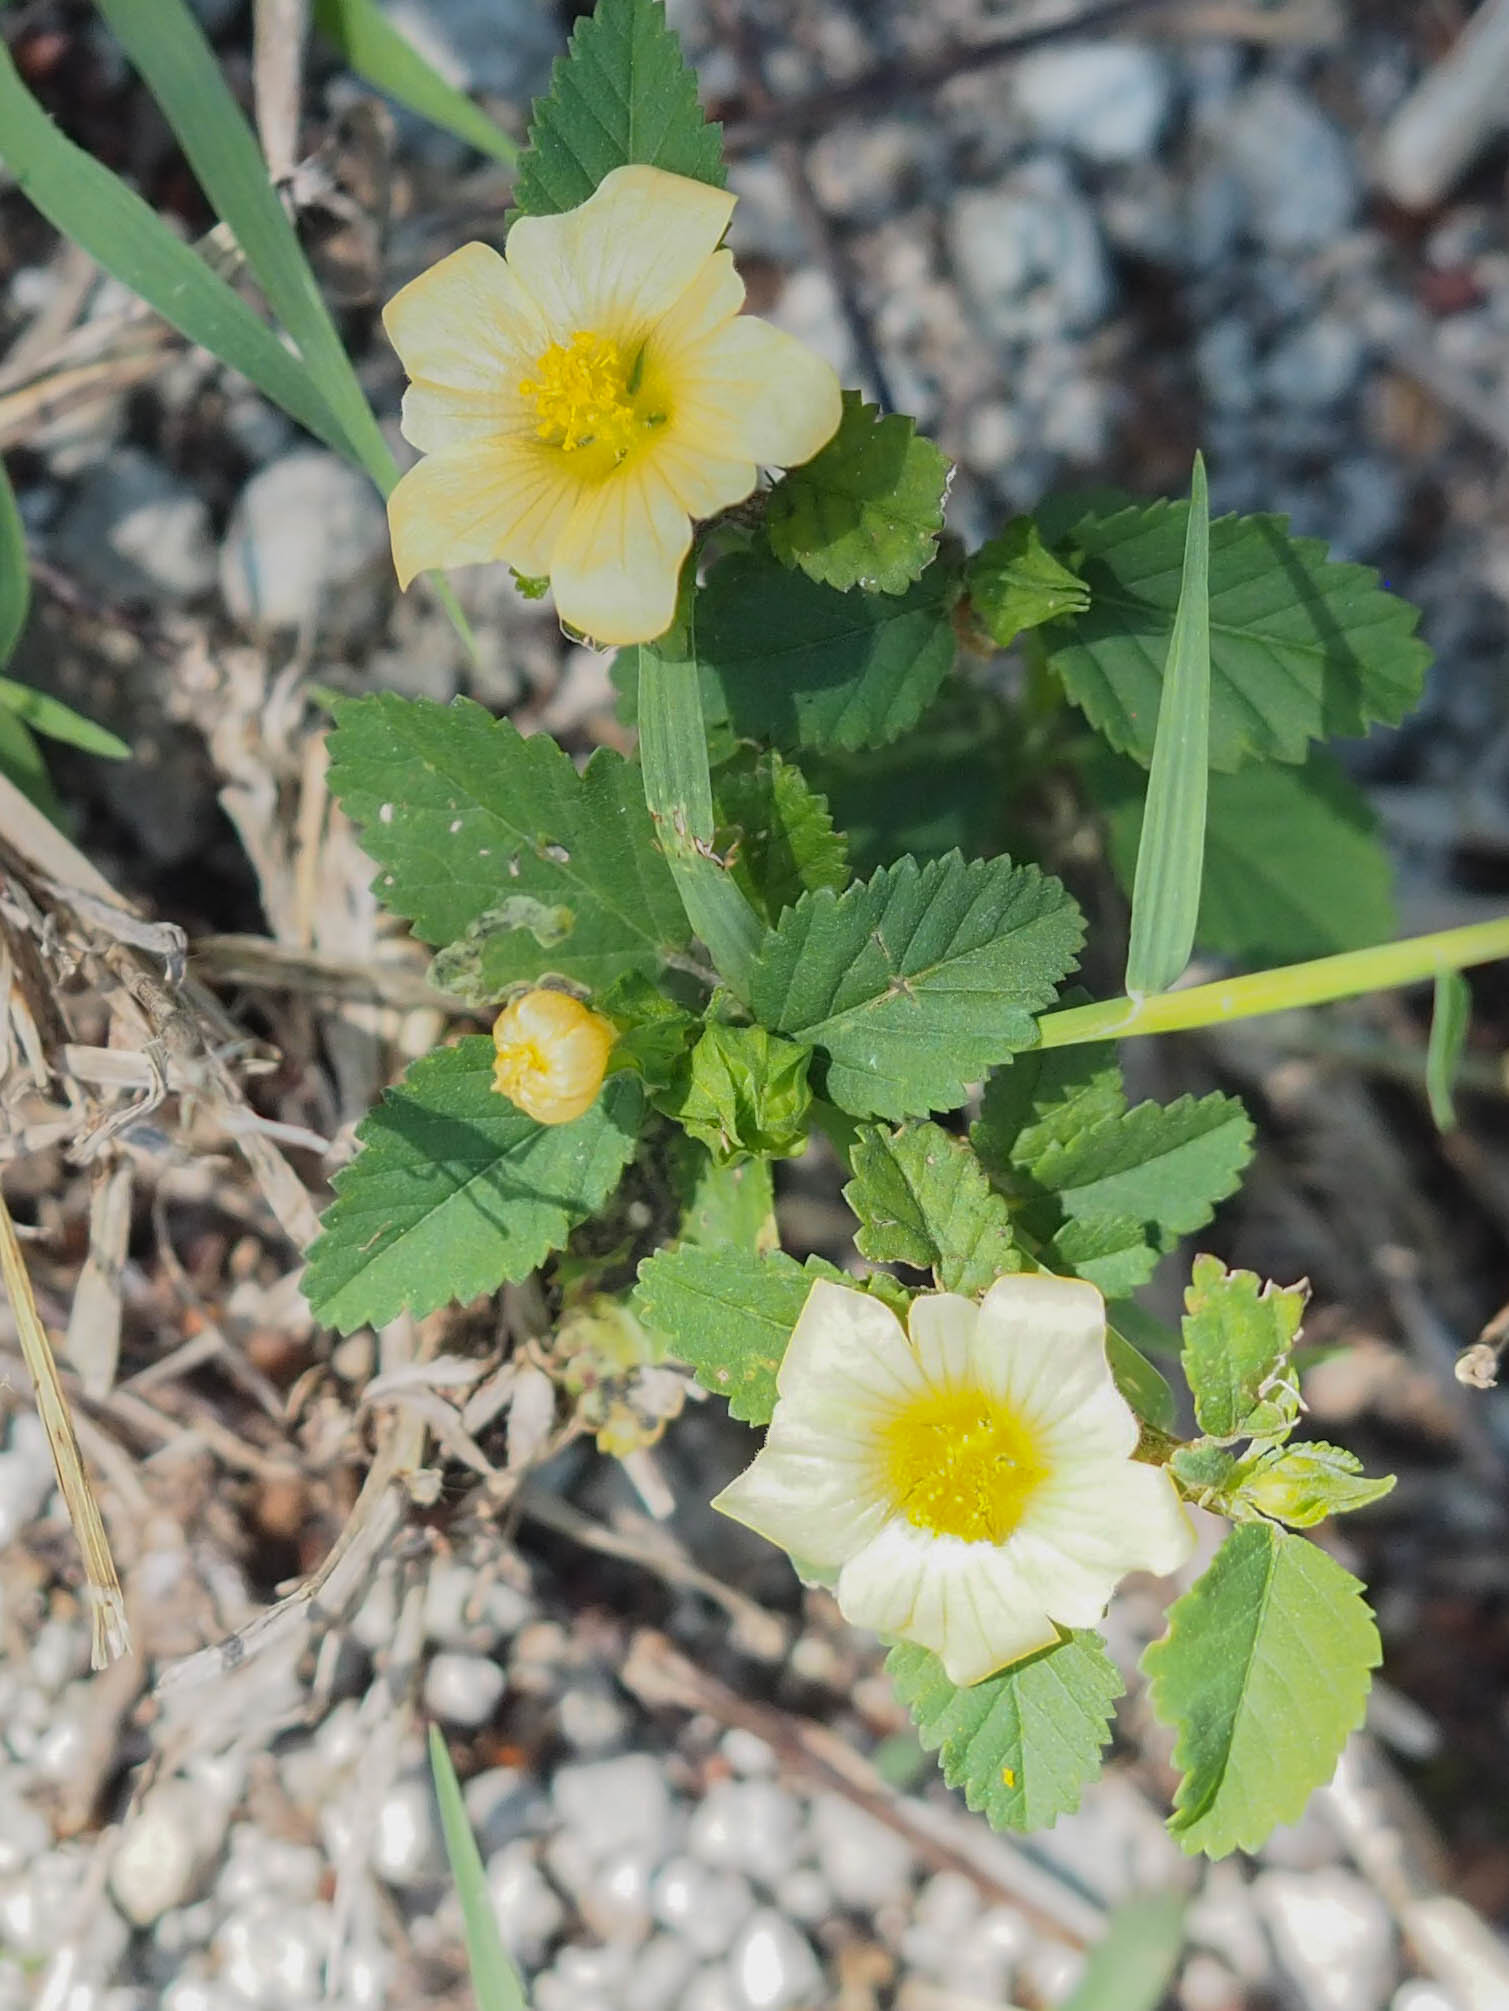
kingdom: Plantae
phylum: Tracheophyta
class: Magnoliopsida
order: Malvales
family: Malvaceae
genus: Sida
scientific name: Sida rhombifolia
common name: Queensland-hemp
